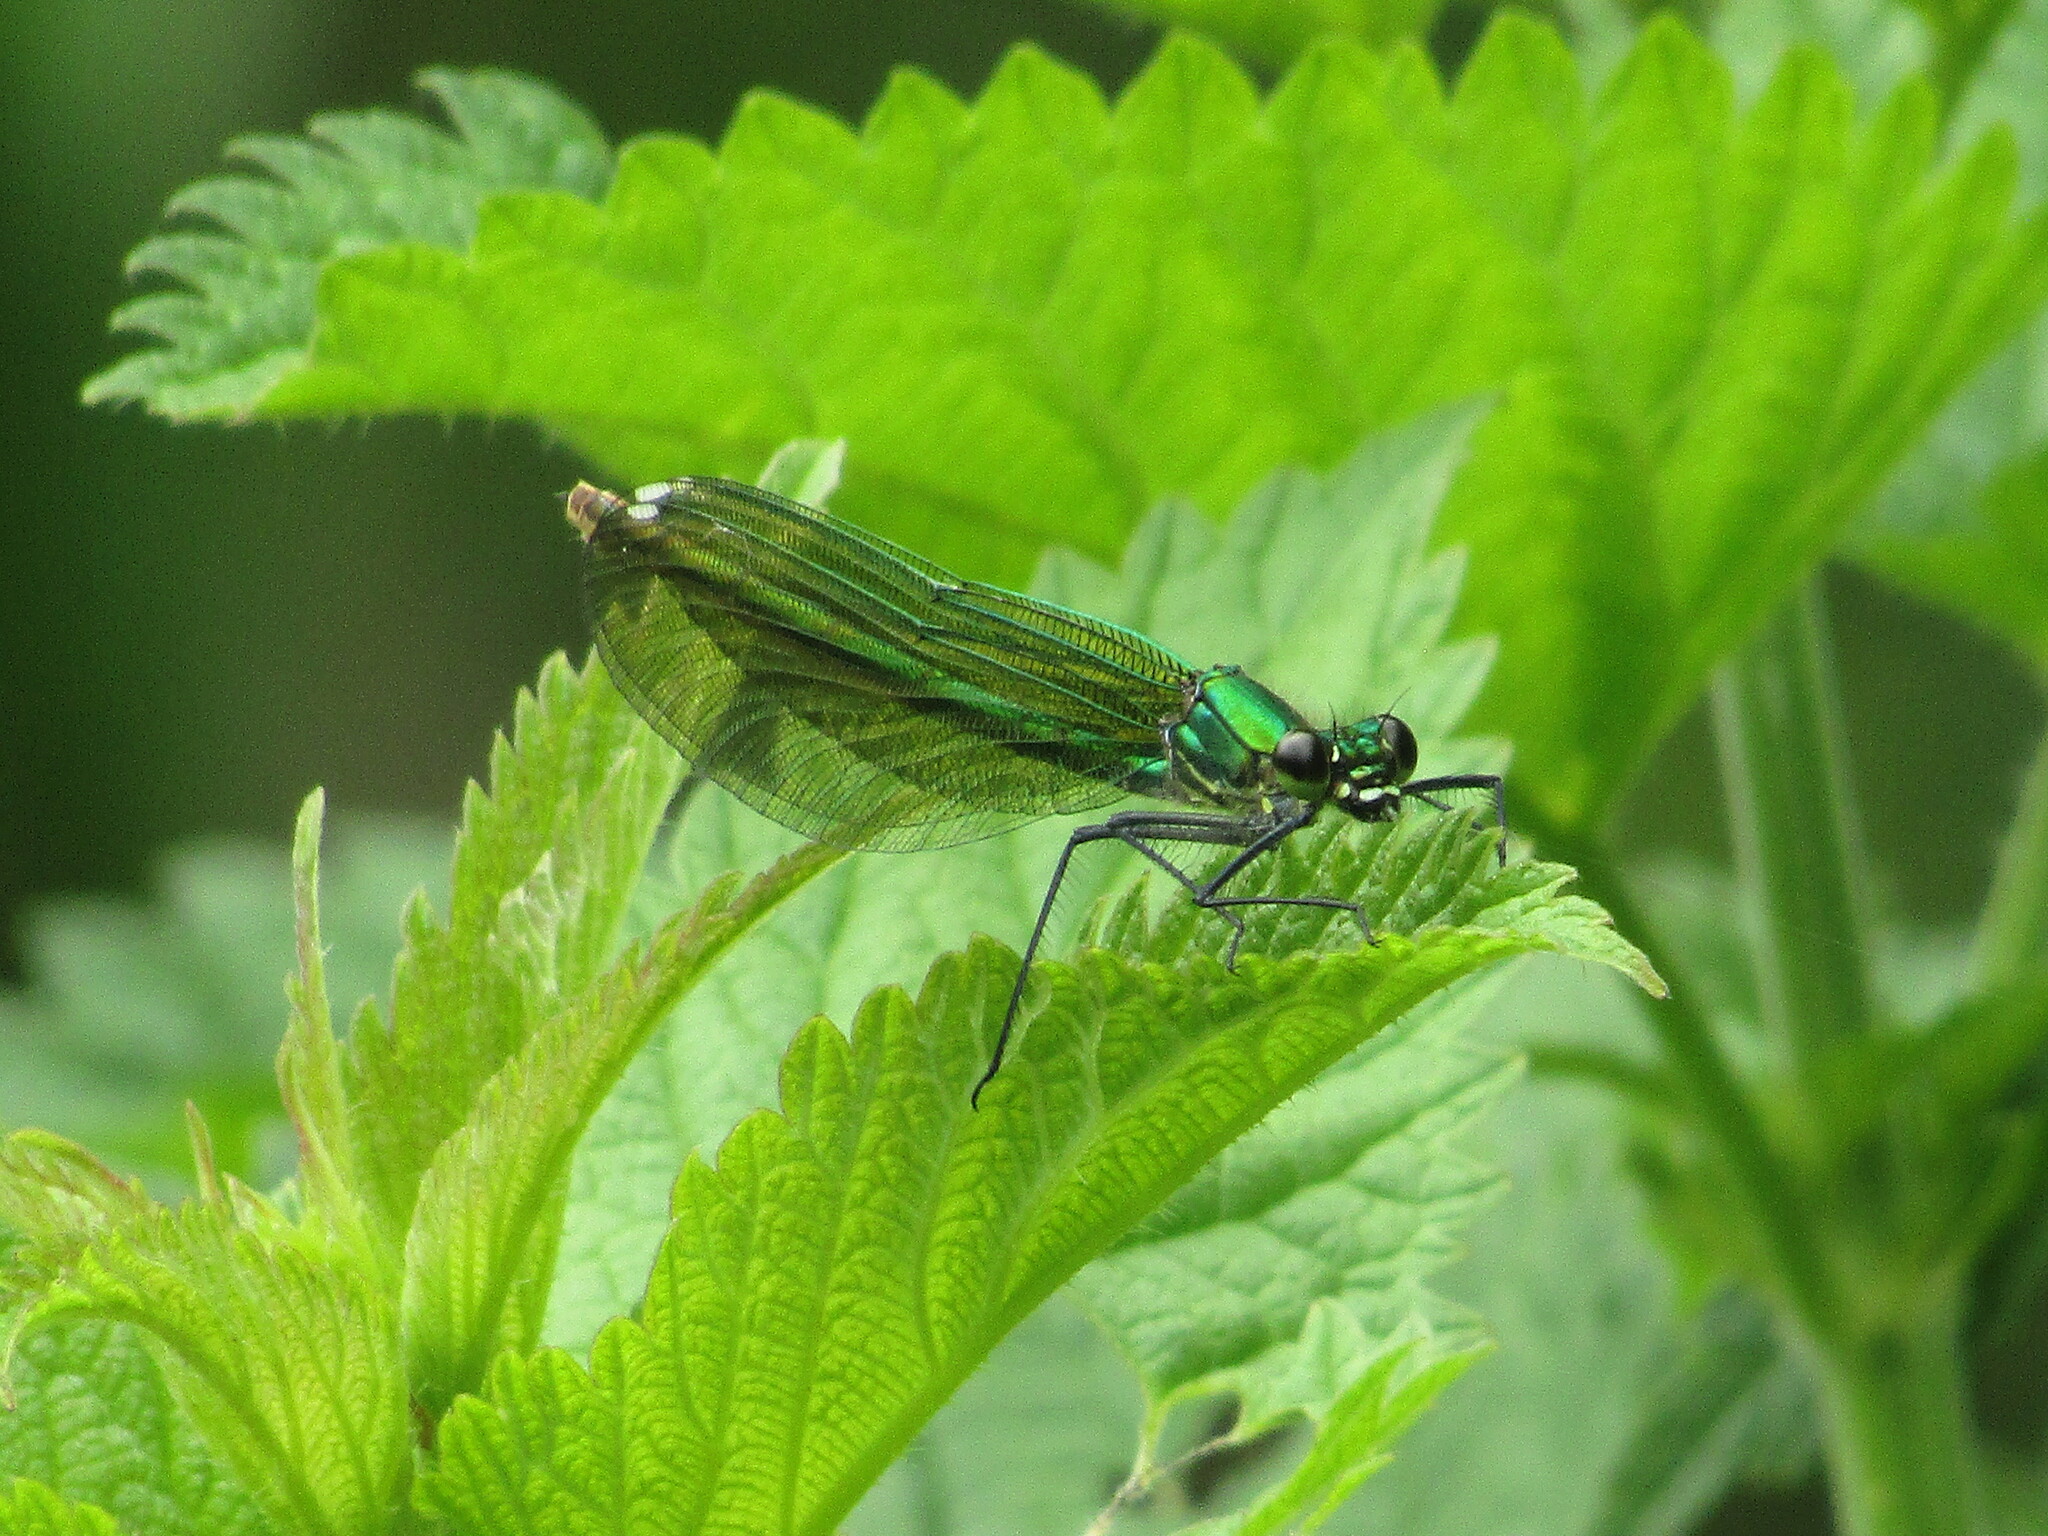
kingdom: Animalia
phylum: Arthropoda
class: Insecta
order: Odonata
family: Calopterygidae
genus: Calopteryx
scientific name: Calopteryx splendens
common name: Banded demoiselle
